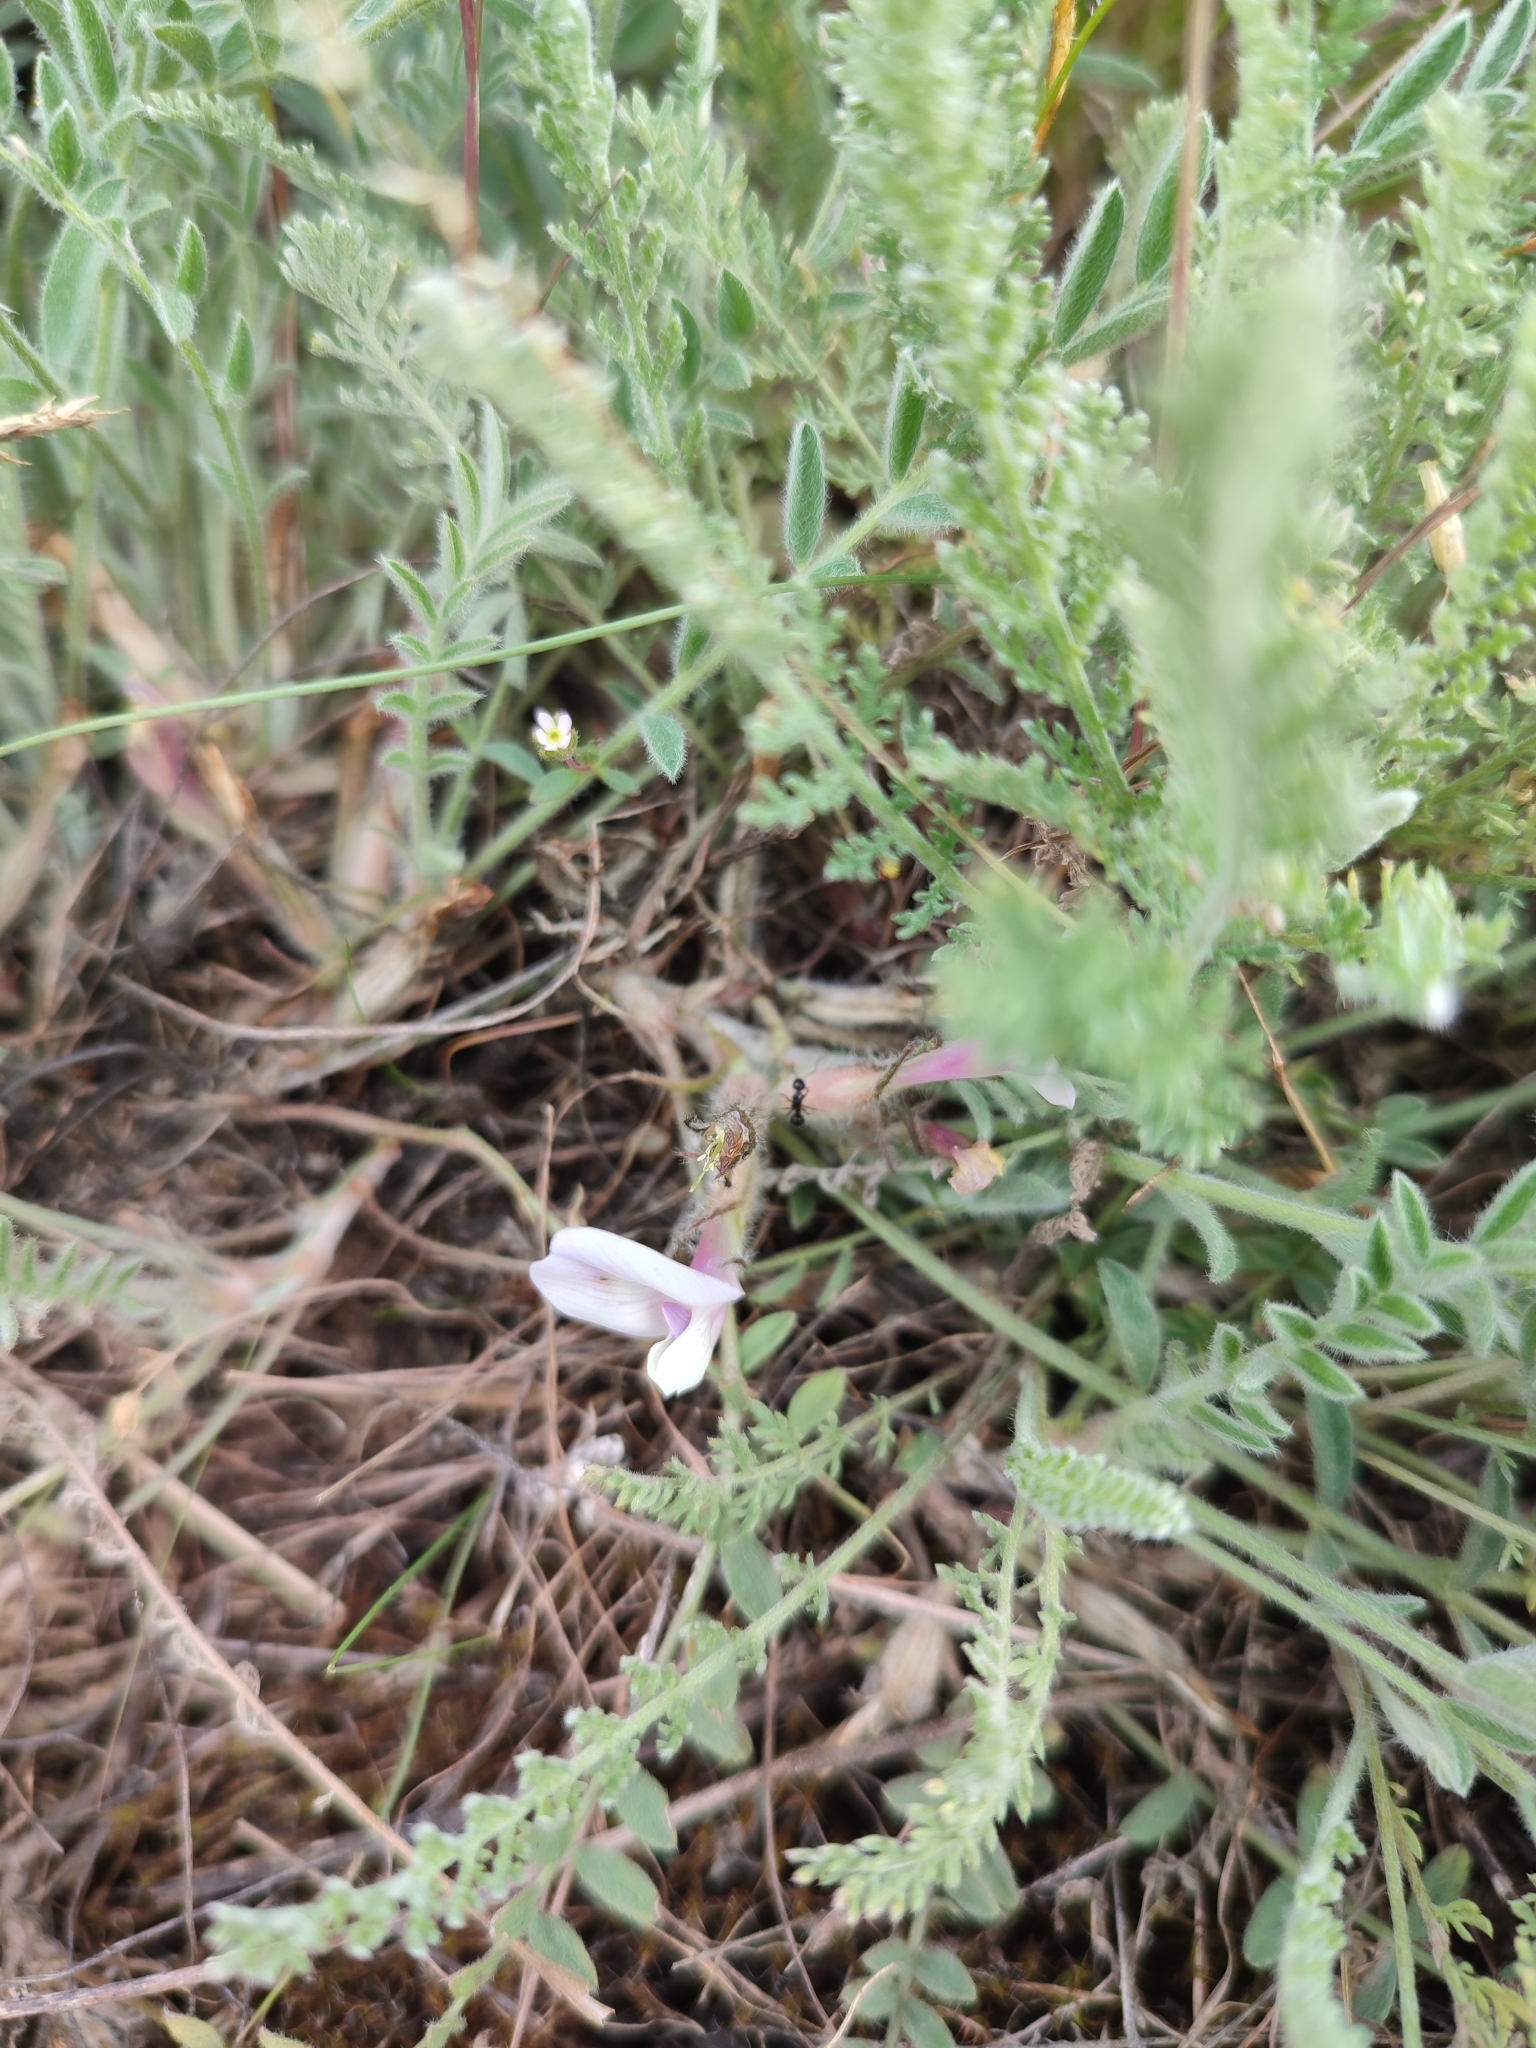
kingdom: Plantae
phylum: Tracheophyta
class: Magnoliopsida
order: Fabales
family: Fabaceae
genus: Astragalus
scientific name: Astragalus rupifragus
